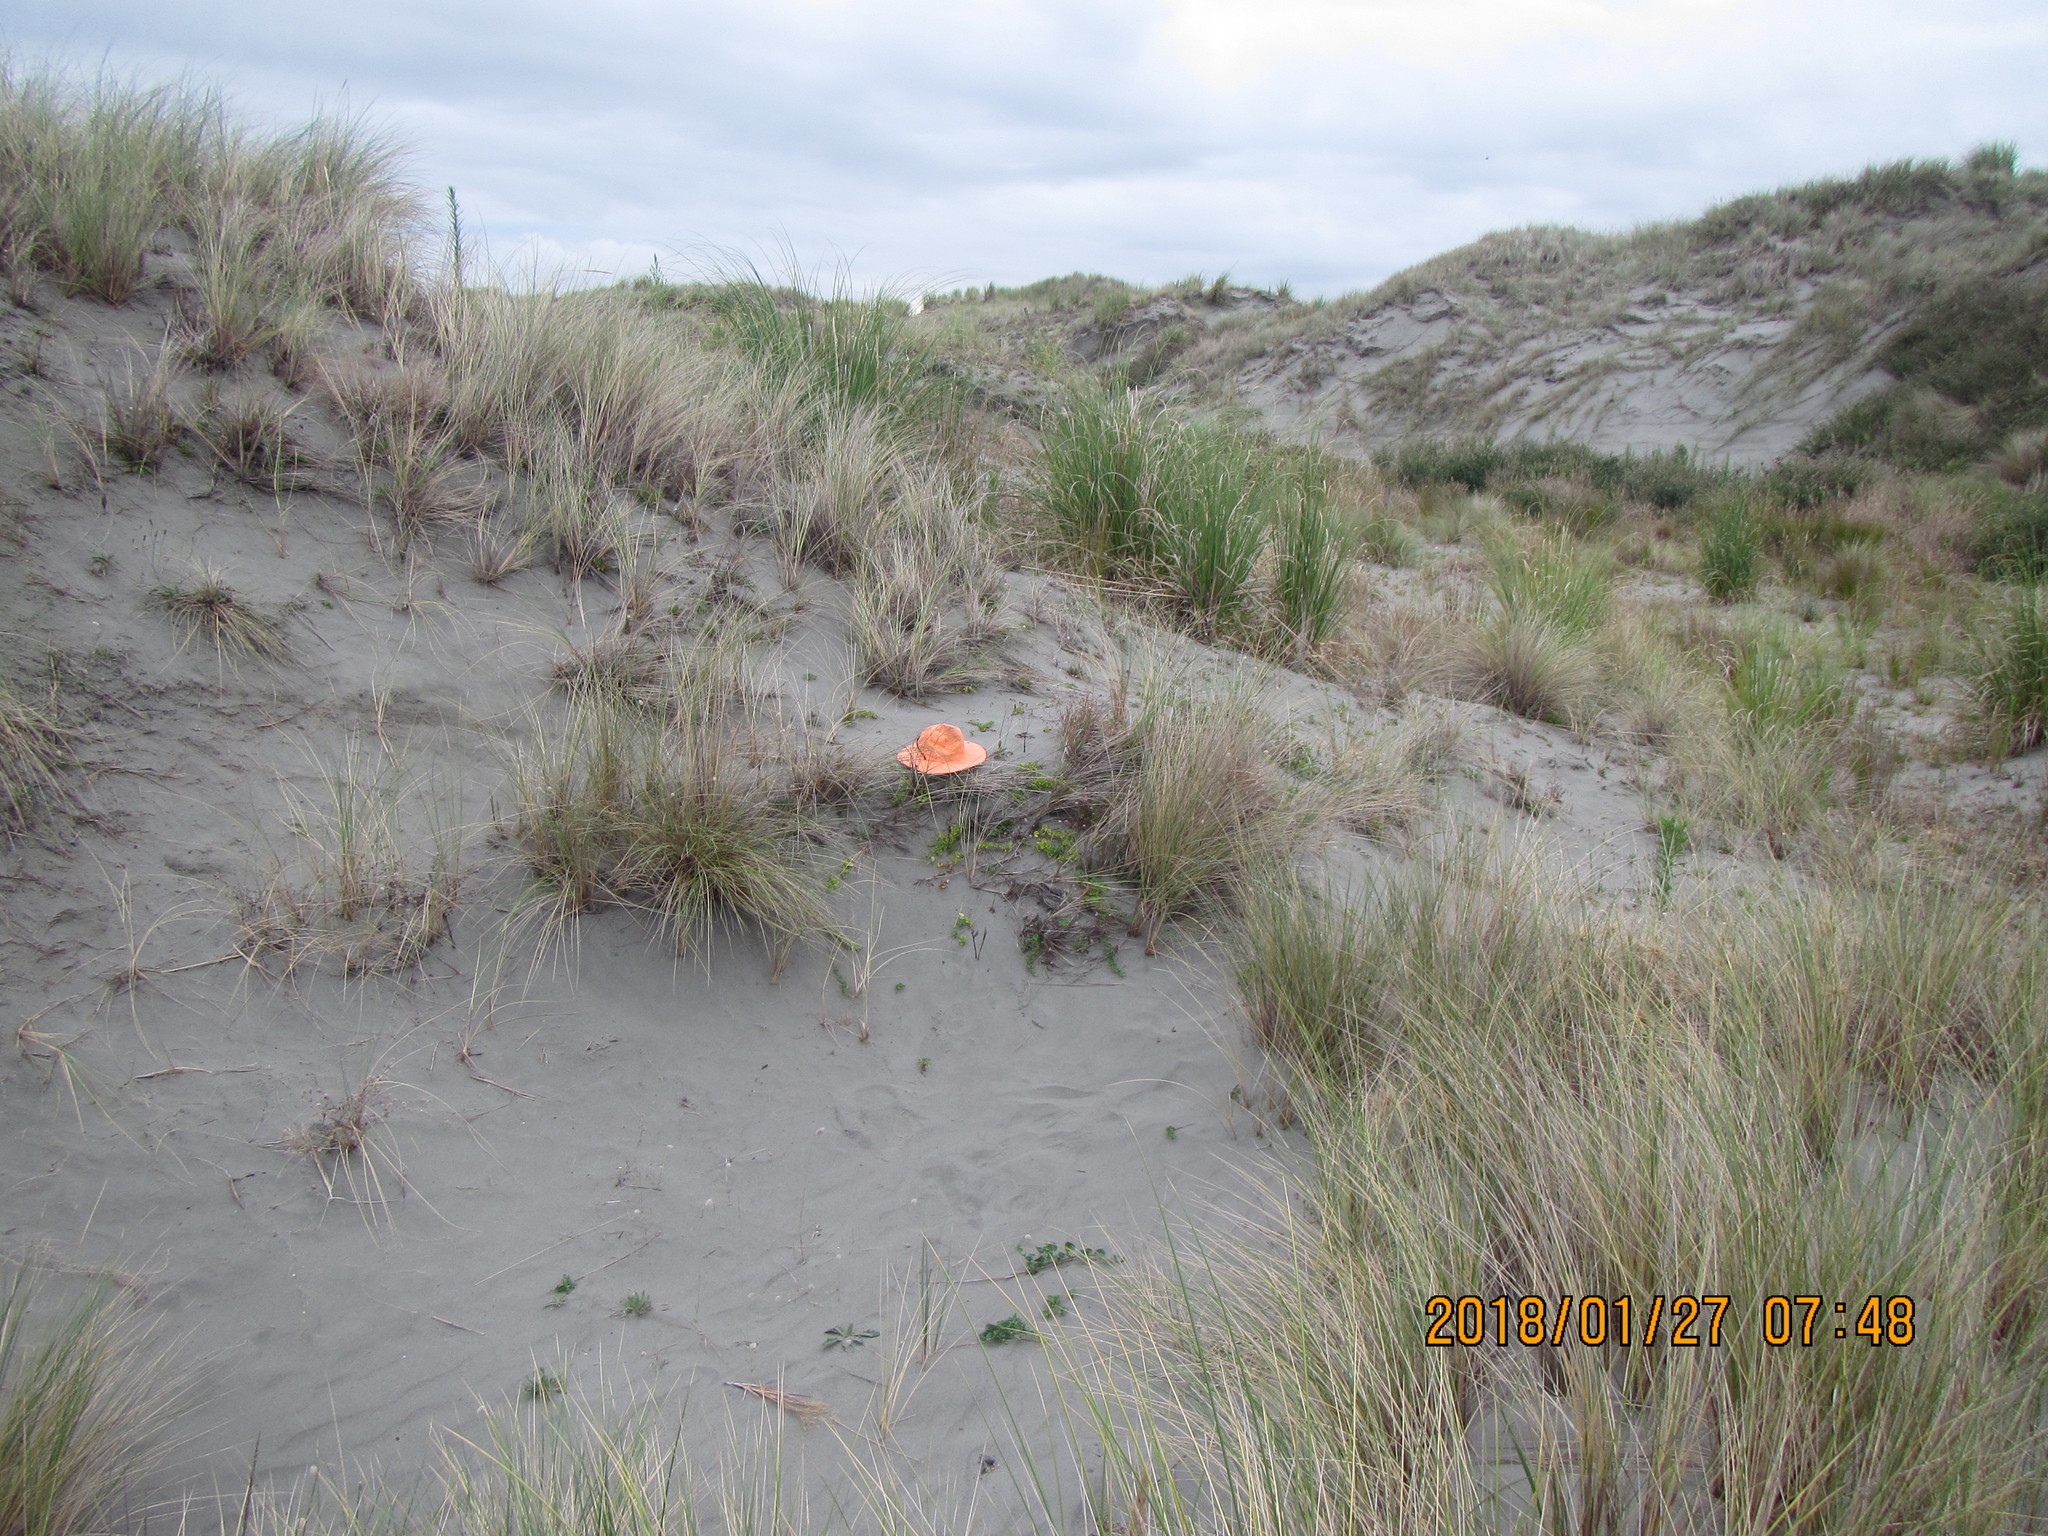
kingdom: Plantae
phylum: Tracheophyta
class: Magnoliopsida
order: Solanales
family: Convolvulaceae
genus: Calystegia
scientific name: Calystegia soldanella
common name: Sea bindweed
